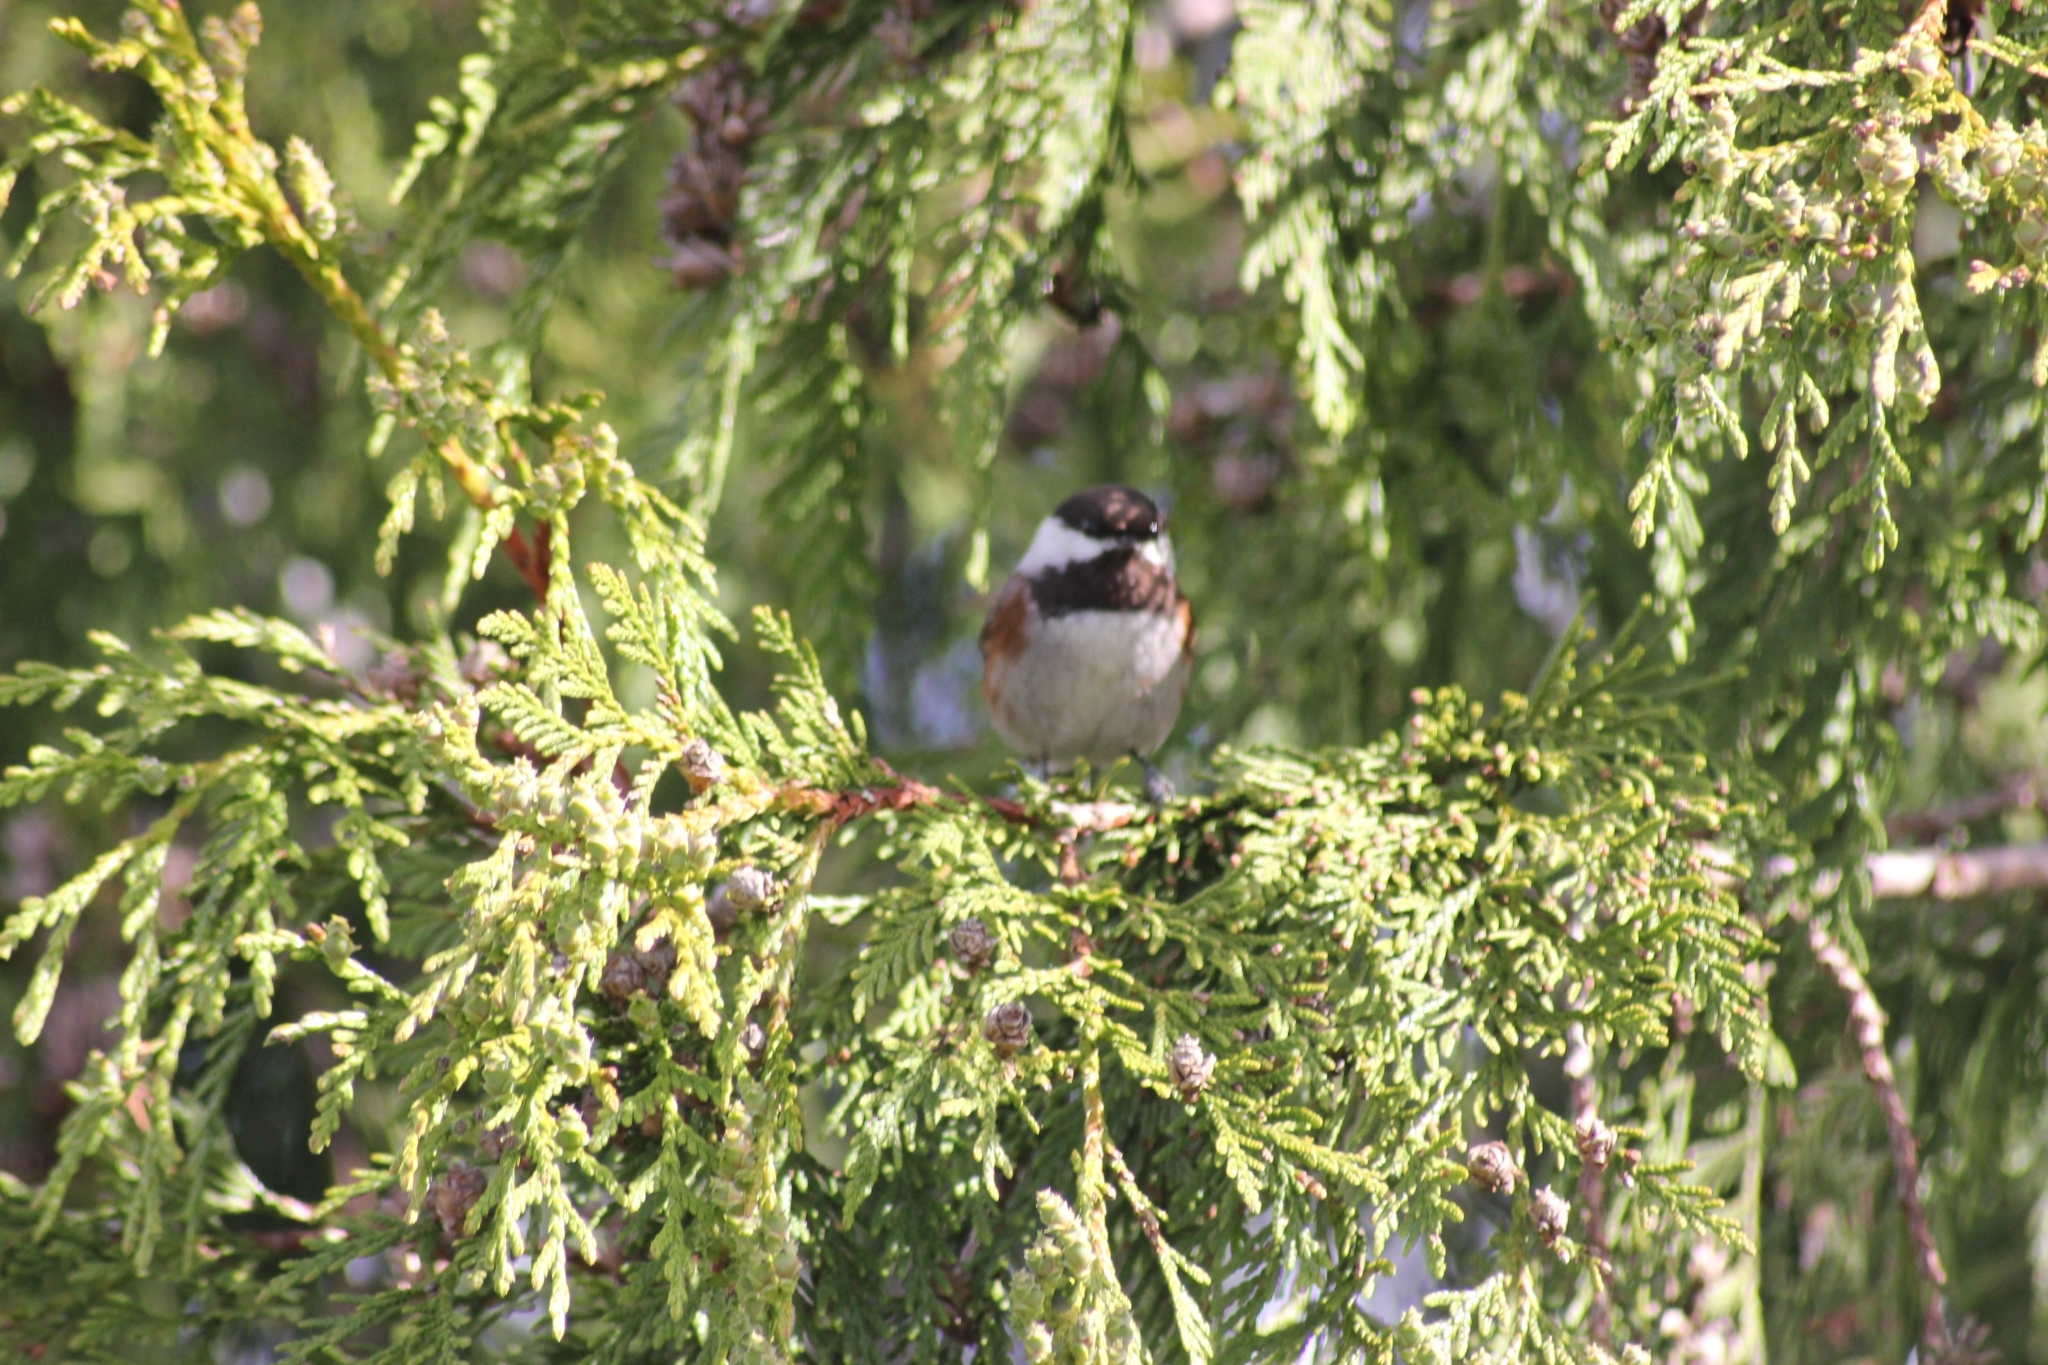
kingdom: Animalia
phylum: Chordata
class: Aves
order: Passeriformes
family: Paridae
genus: Poecile
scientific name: Poecile rufescens
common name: Chestnut-backed chickadee
